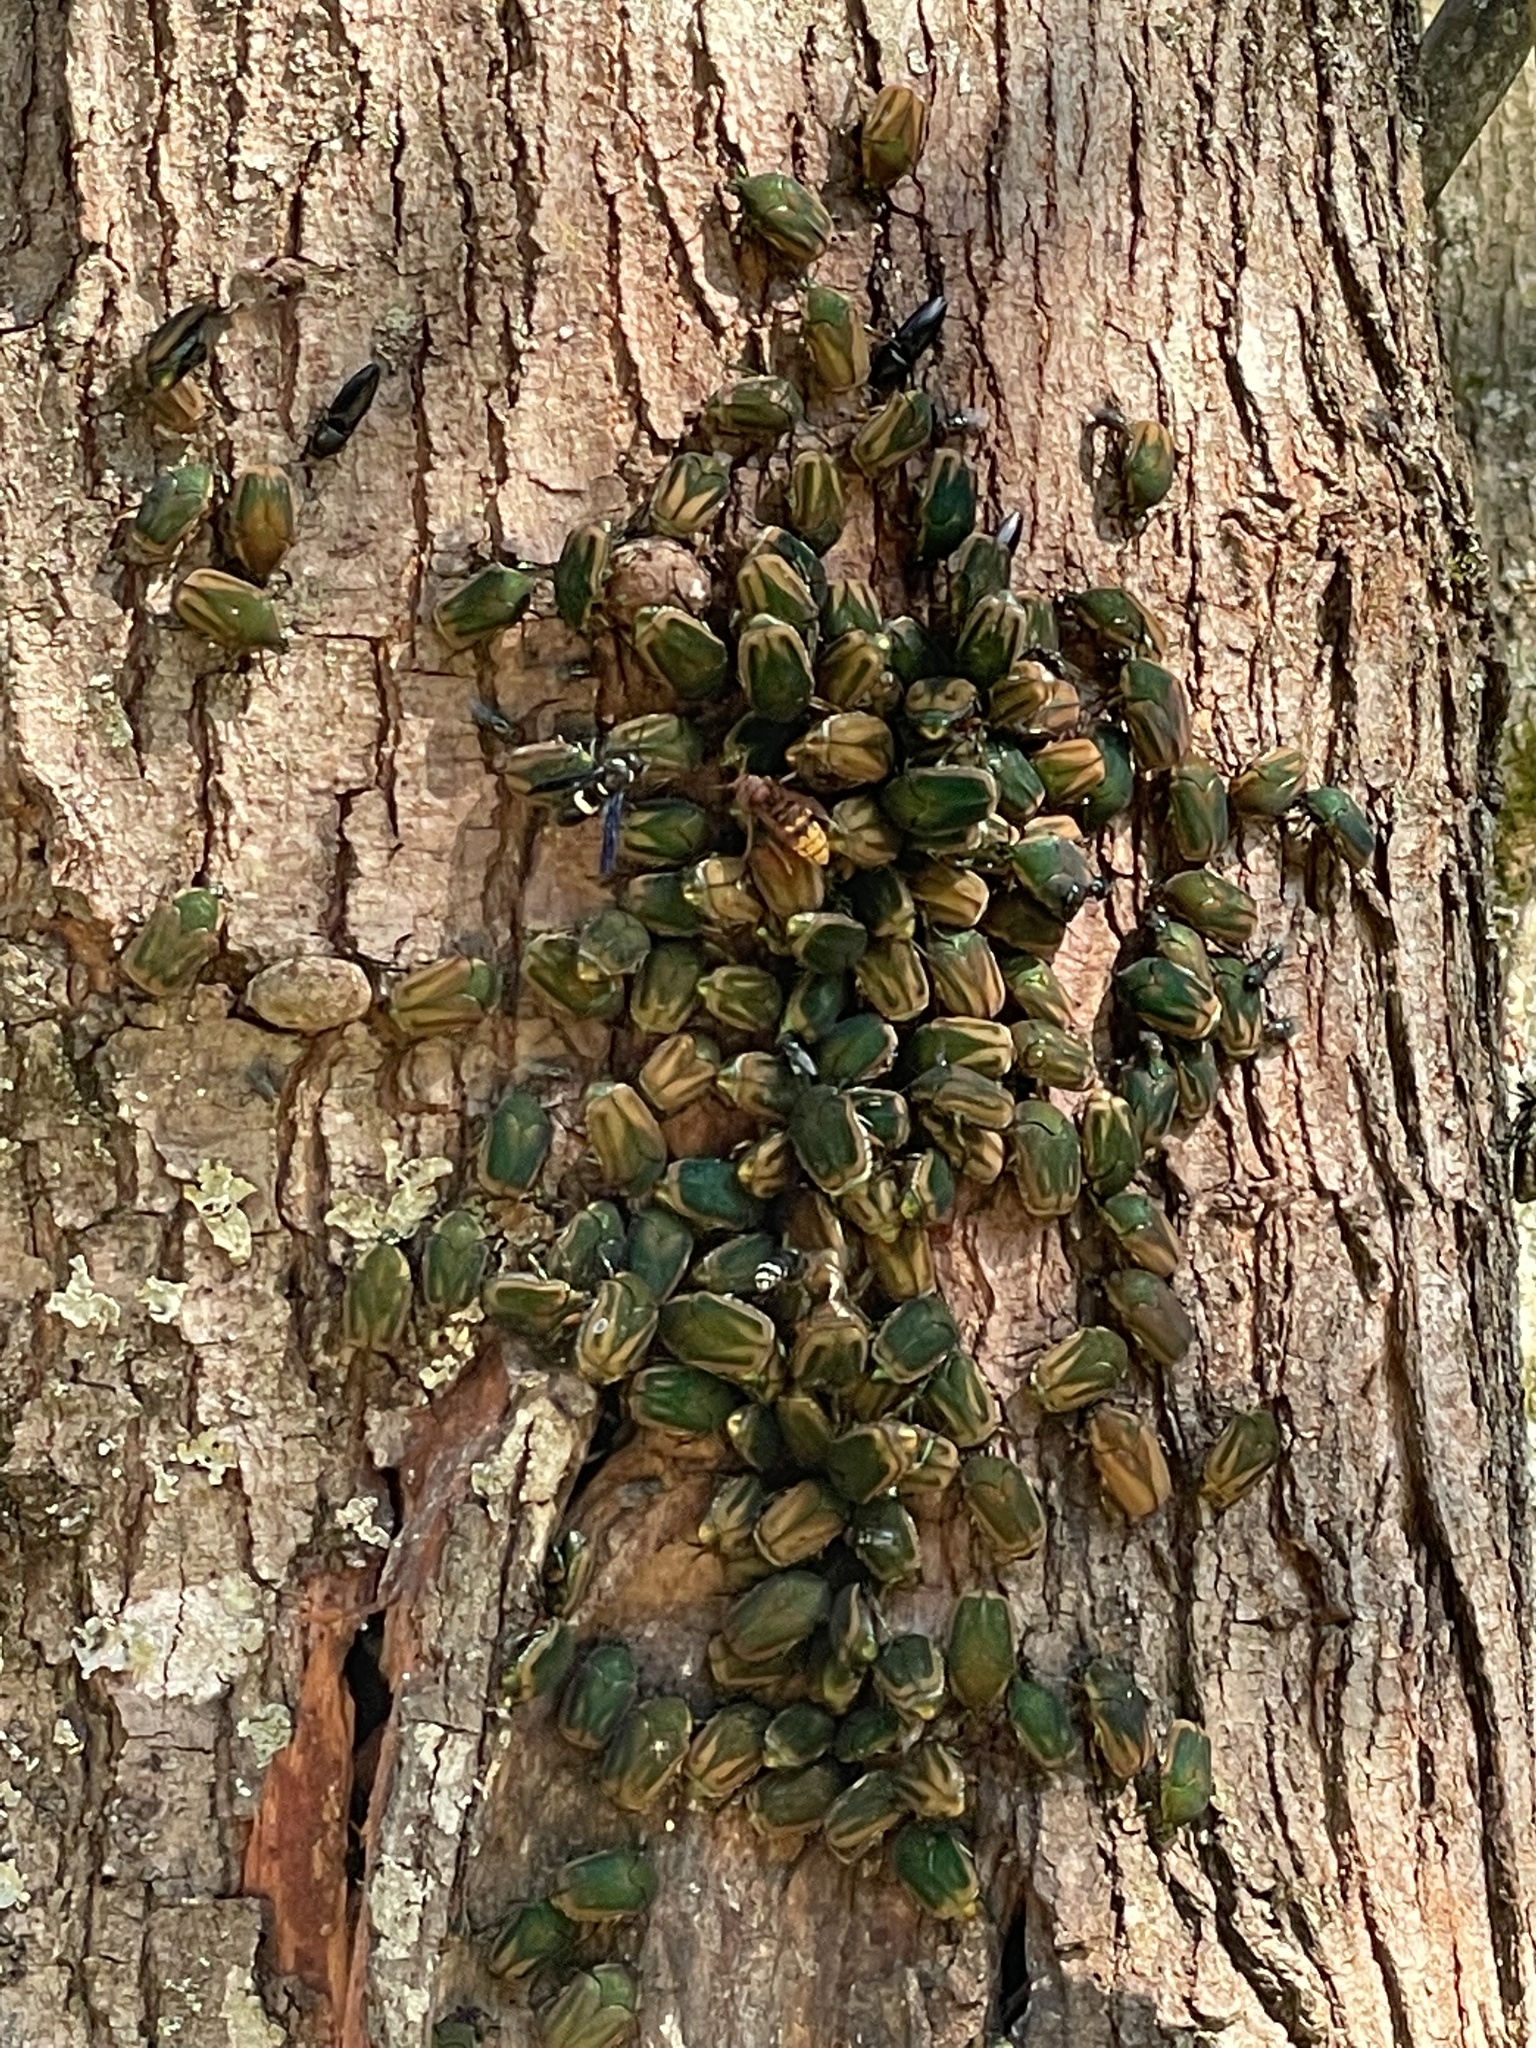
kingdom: Animalia
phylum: Arthropoda
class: Insecta
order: Coleoptera
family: Scarabaeidae
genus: Cotinis
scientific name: Cotinis nitida
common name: Common green june beetle
